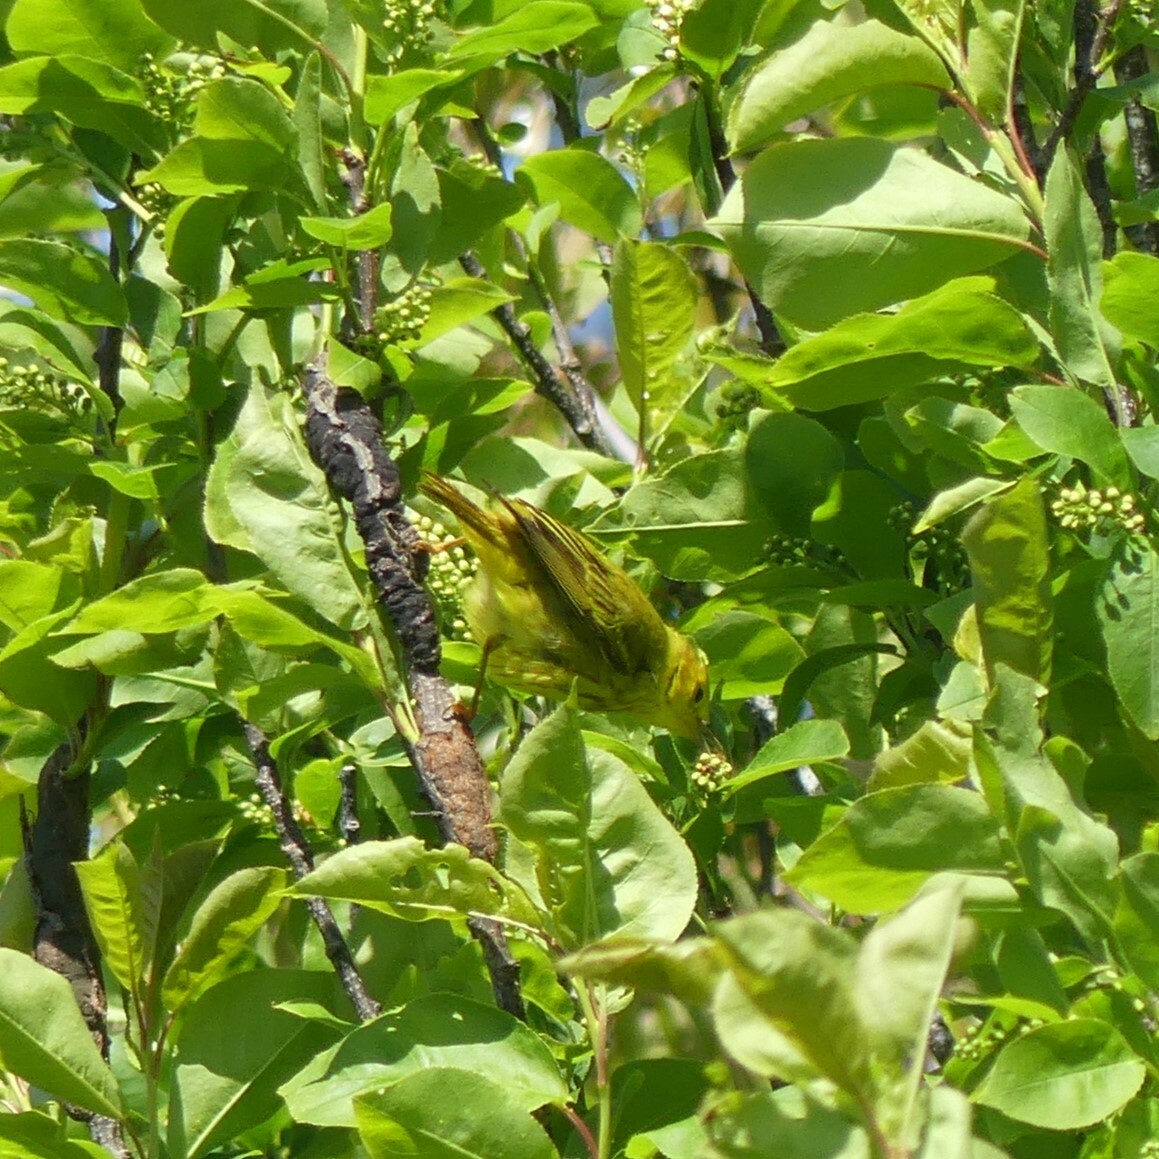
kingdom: Animalia
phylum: Chordata
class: Aves
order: Passeriformes
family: Parulidae
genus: Setophaga
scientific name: Setophaga petechia
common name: Yellow warbler
